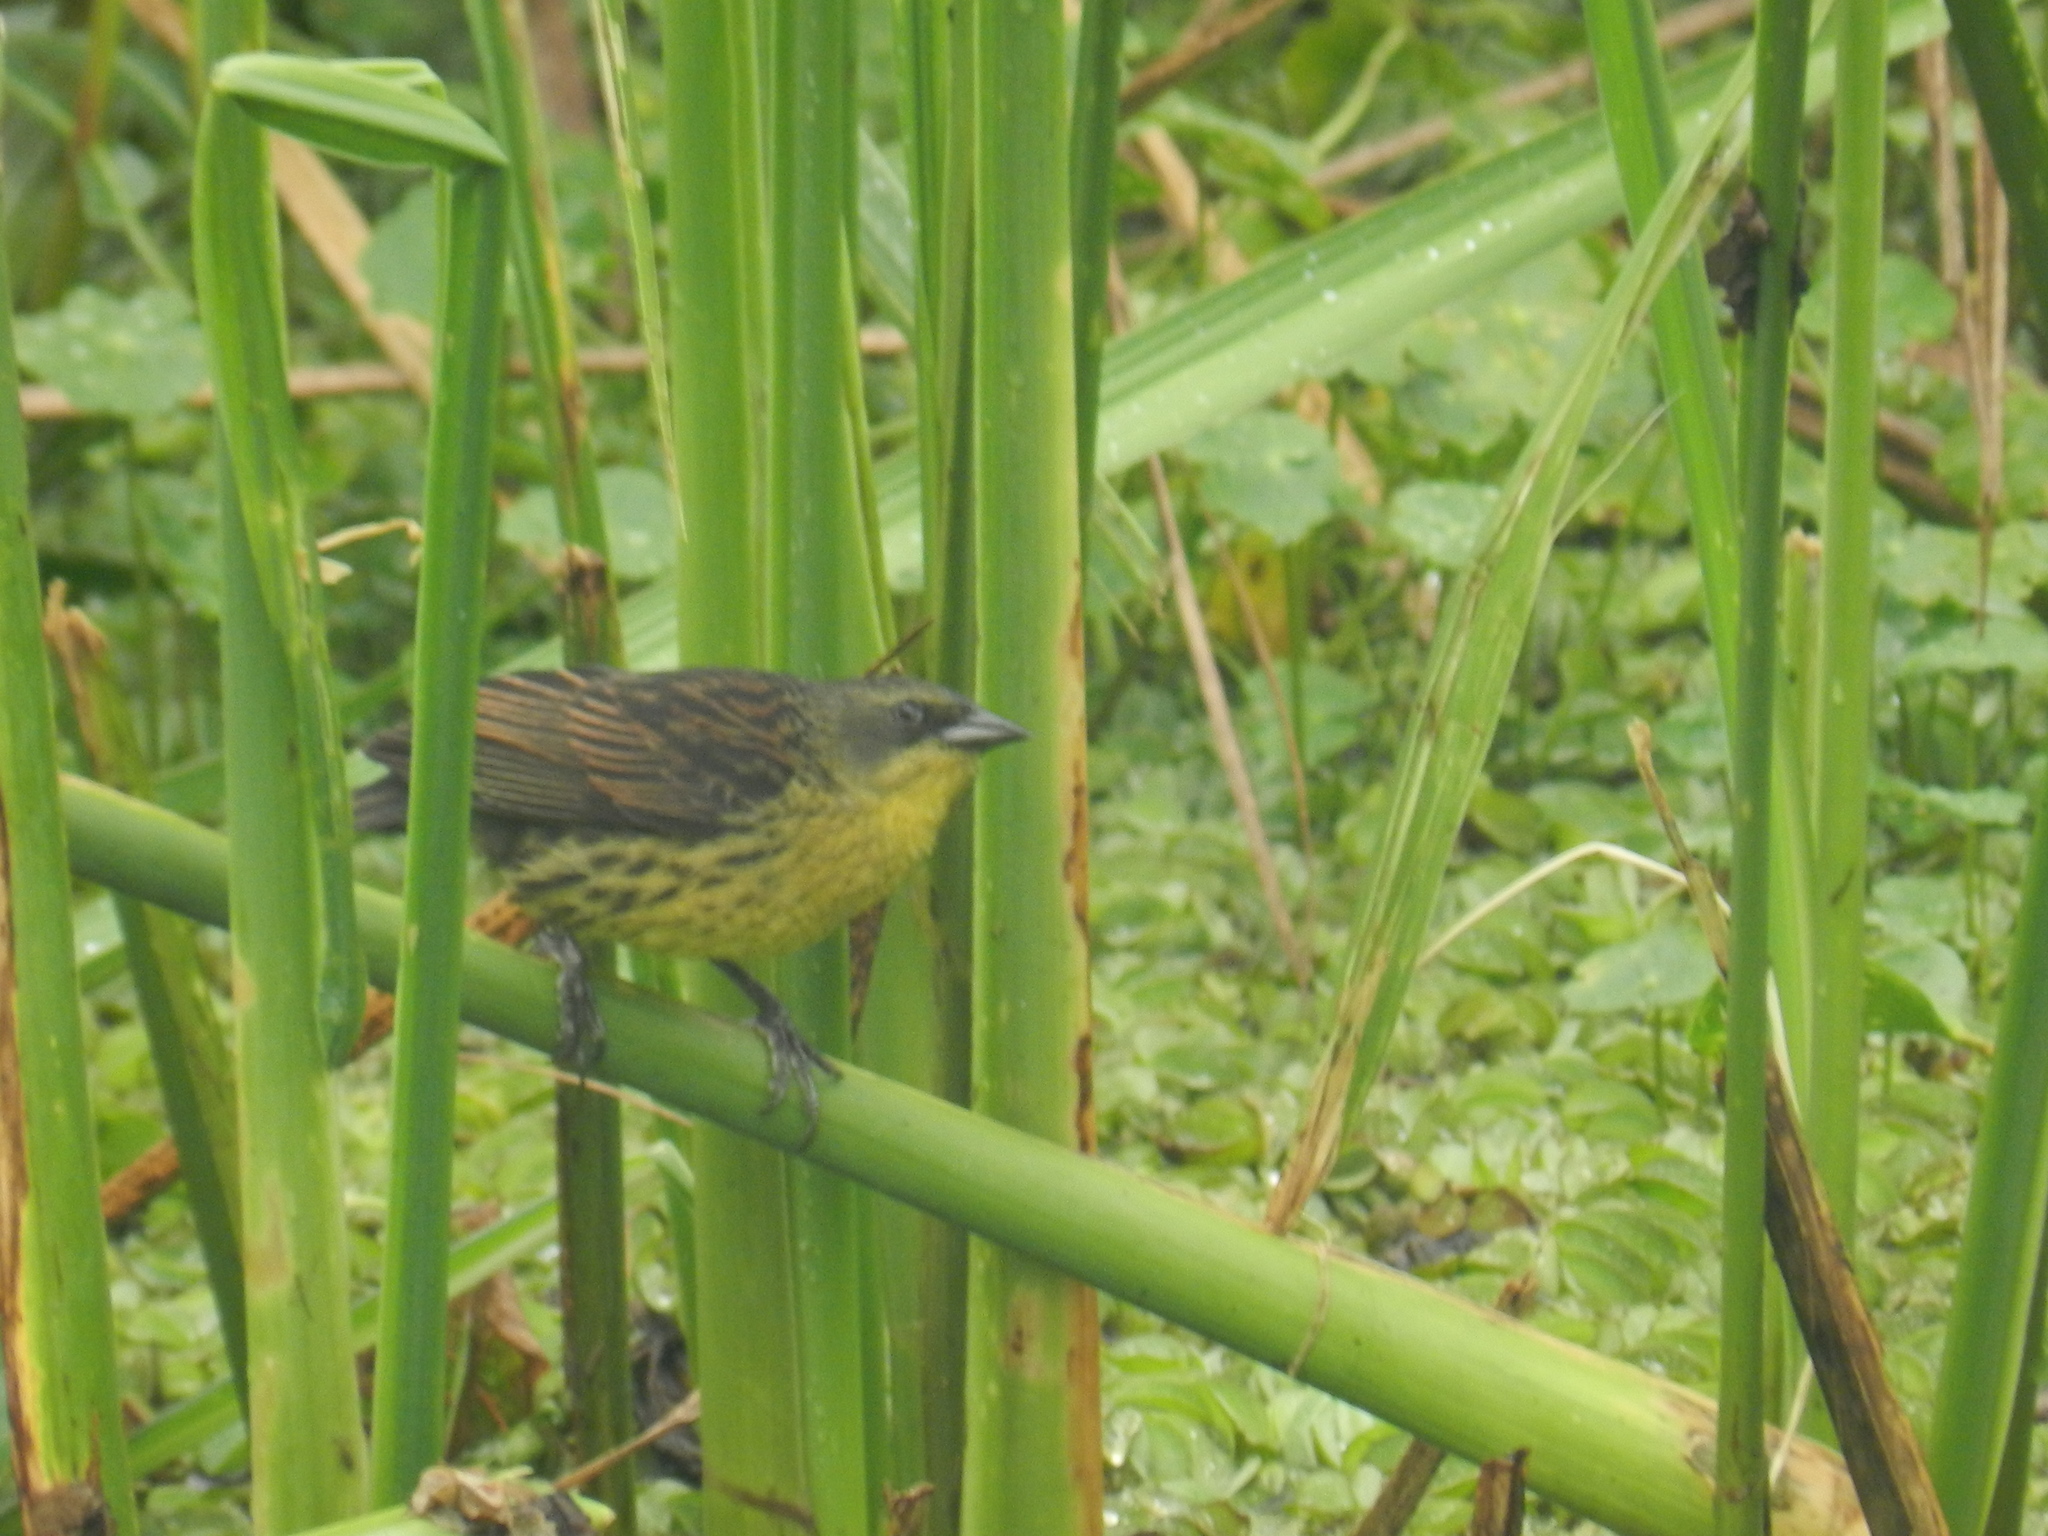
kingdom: Animalia
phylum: Chordata
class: Aves
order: Passeriformes
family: Icteridae
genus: Agelasticus
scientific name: Agelasticus cyanopus
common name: Unicolored blackbird
